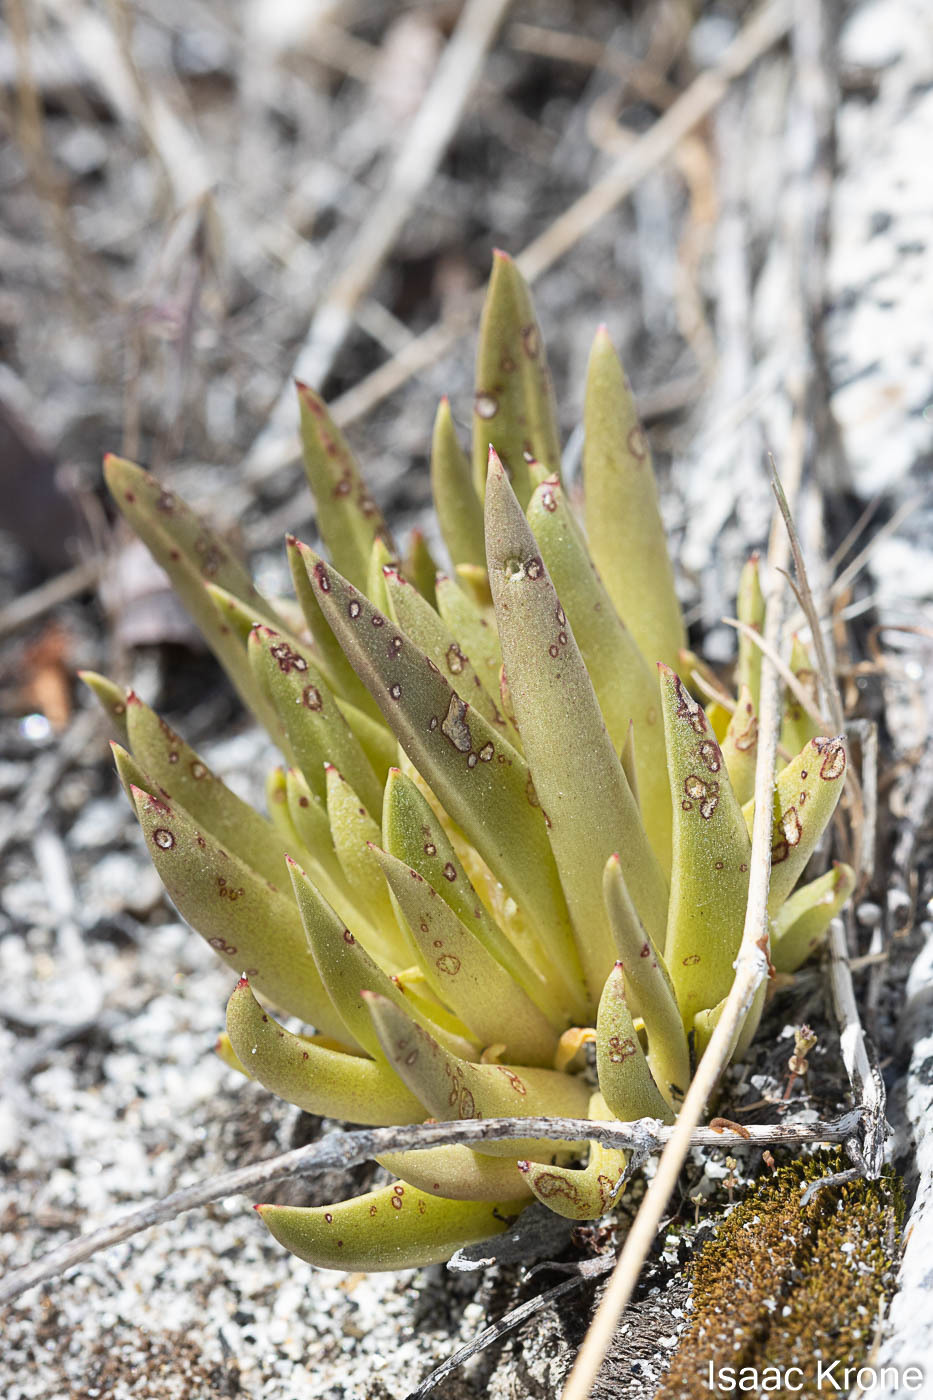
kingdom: Plantae
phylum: Tracheophyta
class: Magnoliopsida
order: Saxifragales
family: Crassulaceae
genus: Dudleya
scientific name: Dudleya saxosa
